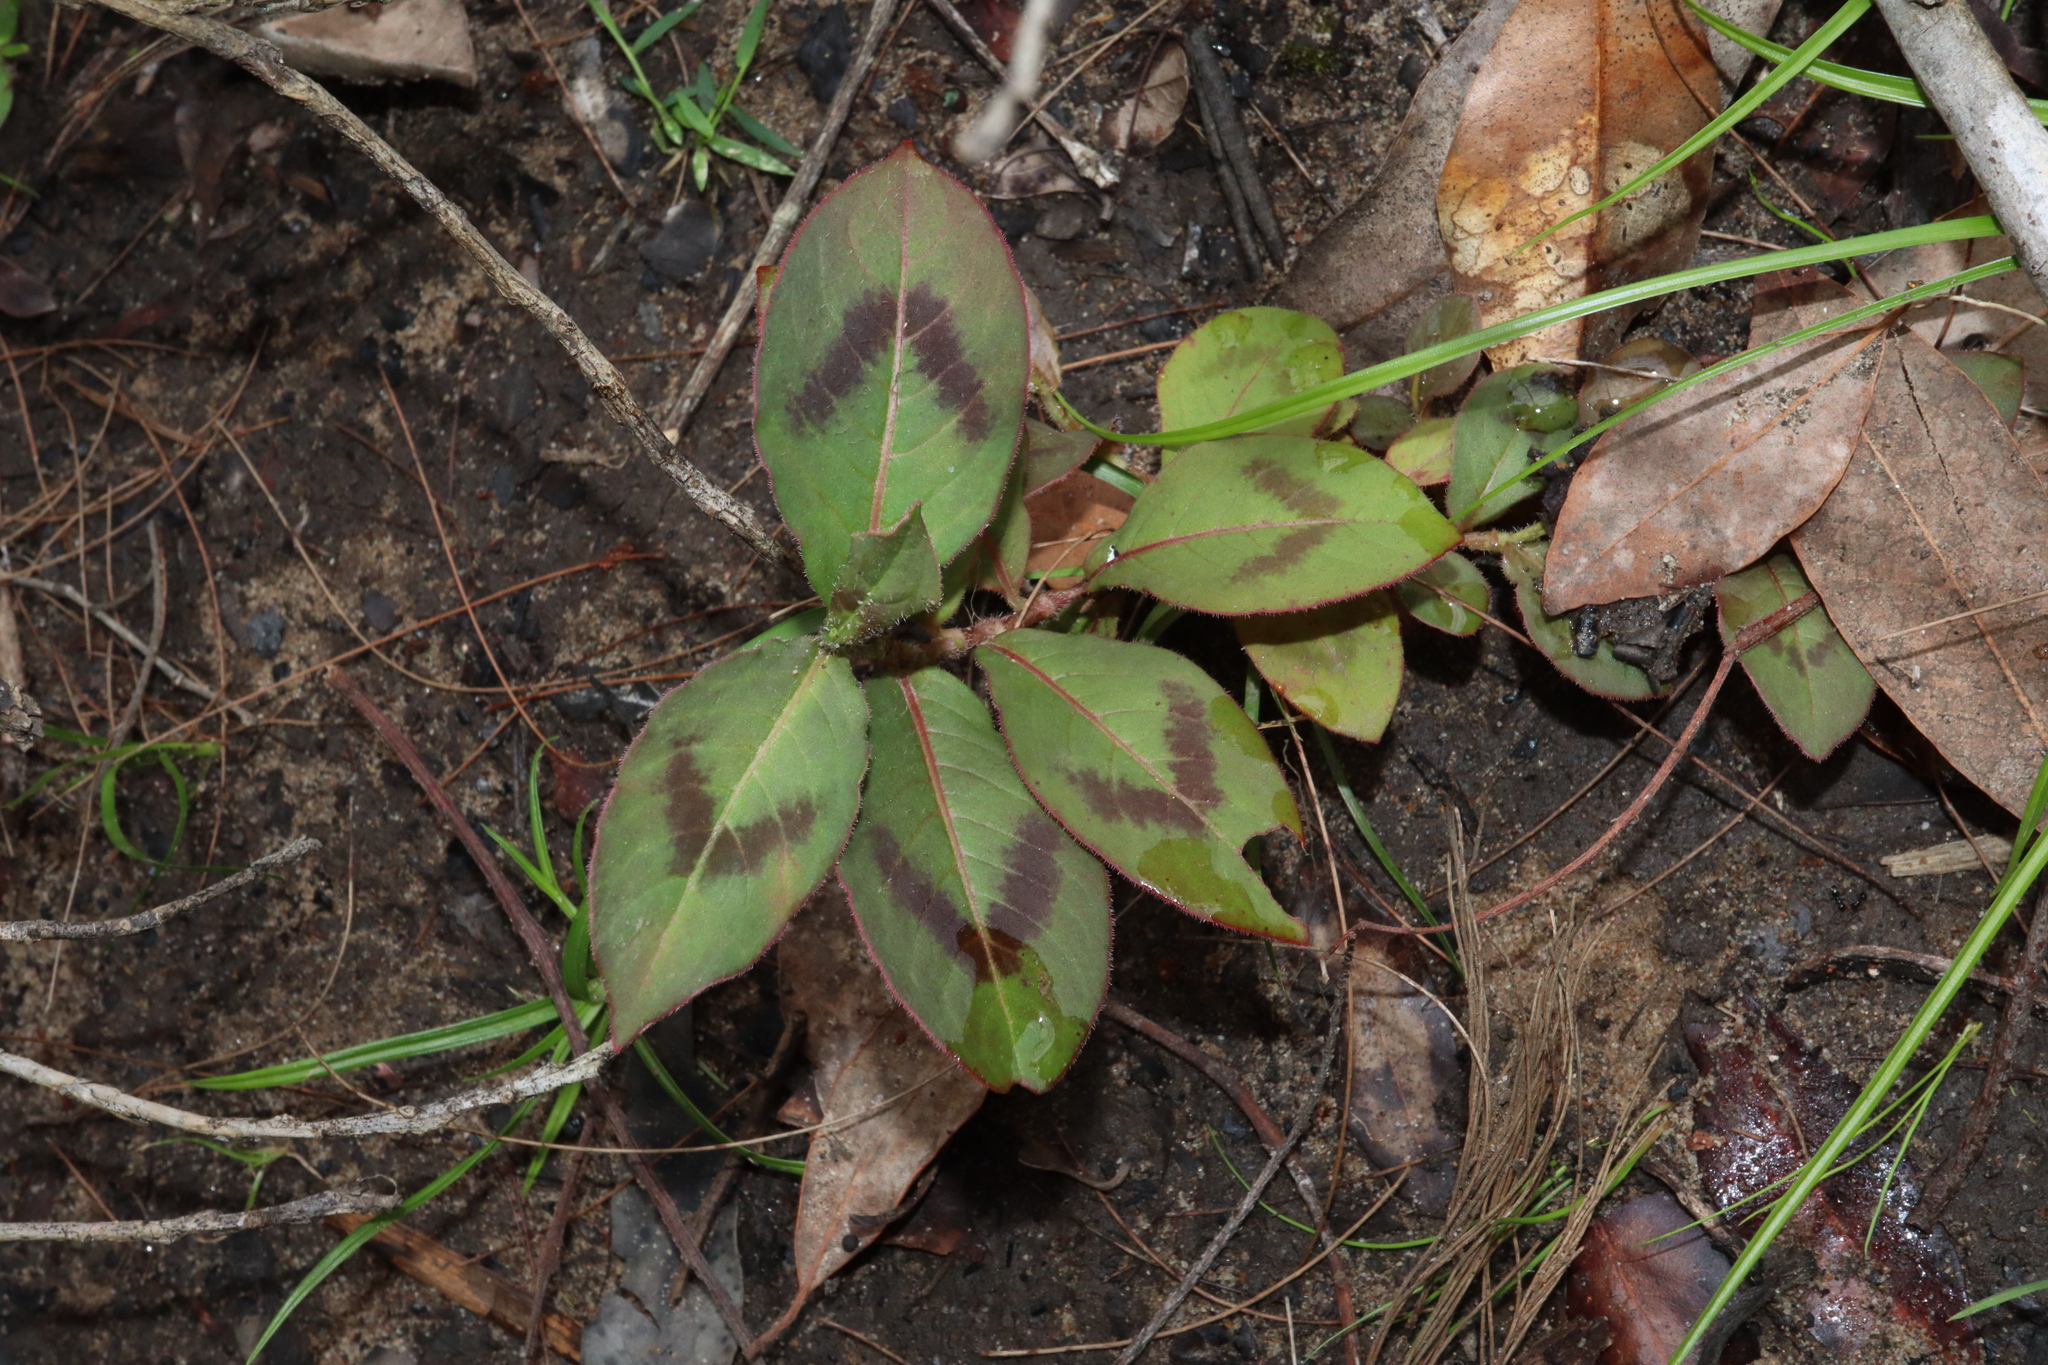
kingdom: Plantae
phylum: Tracheophyta
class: Magnoliopsida
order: Caryophyllales
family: Polygonaceae
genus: Persicaria
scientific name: Persicaria capitata
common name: Pinkhead smartweed
